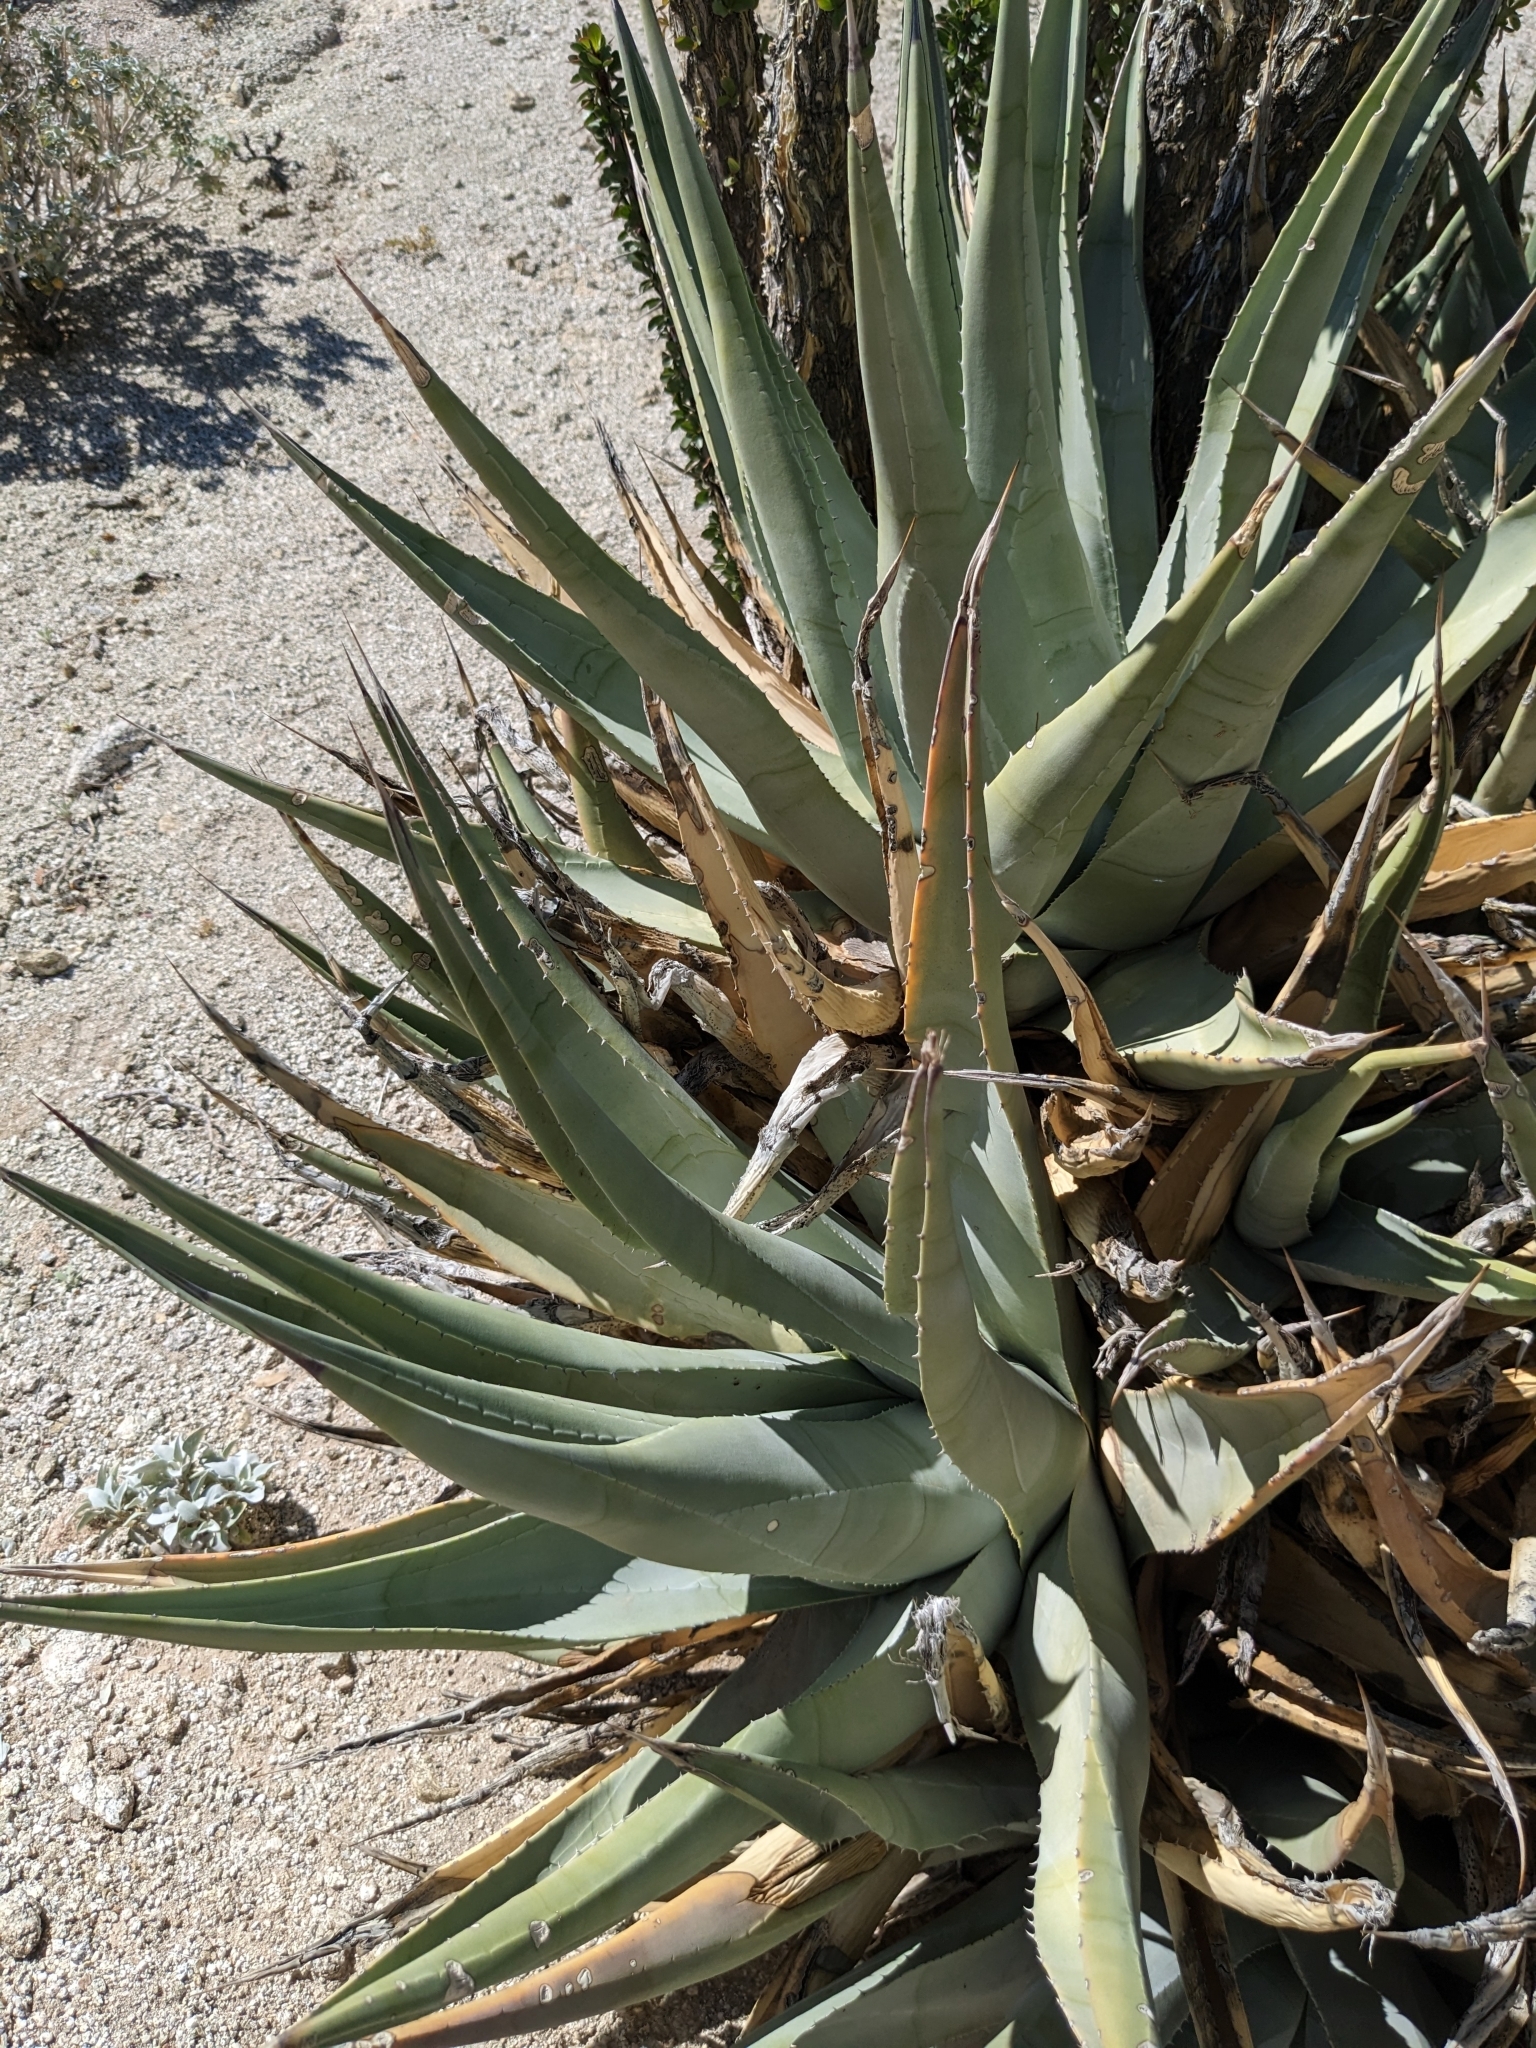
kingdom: Plantae
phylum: Tracheophyta
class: Liliopsida
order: Asparagales
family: Asparagaceae
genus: Agave
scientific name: Agave deserti
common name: Desert agave
